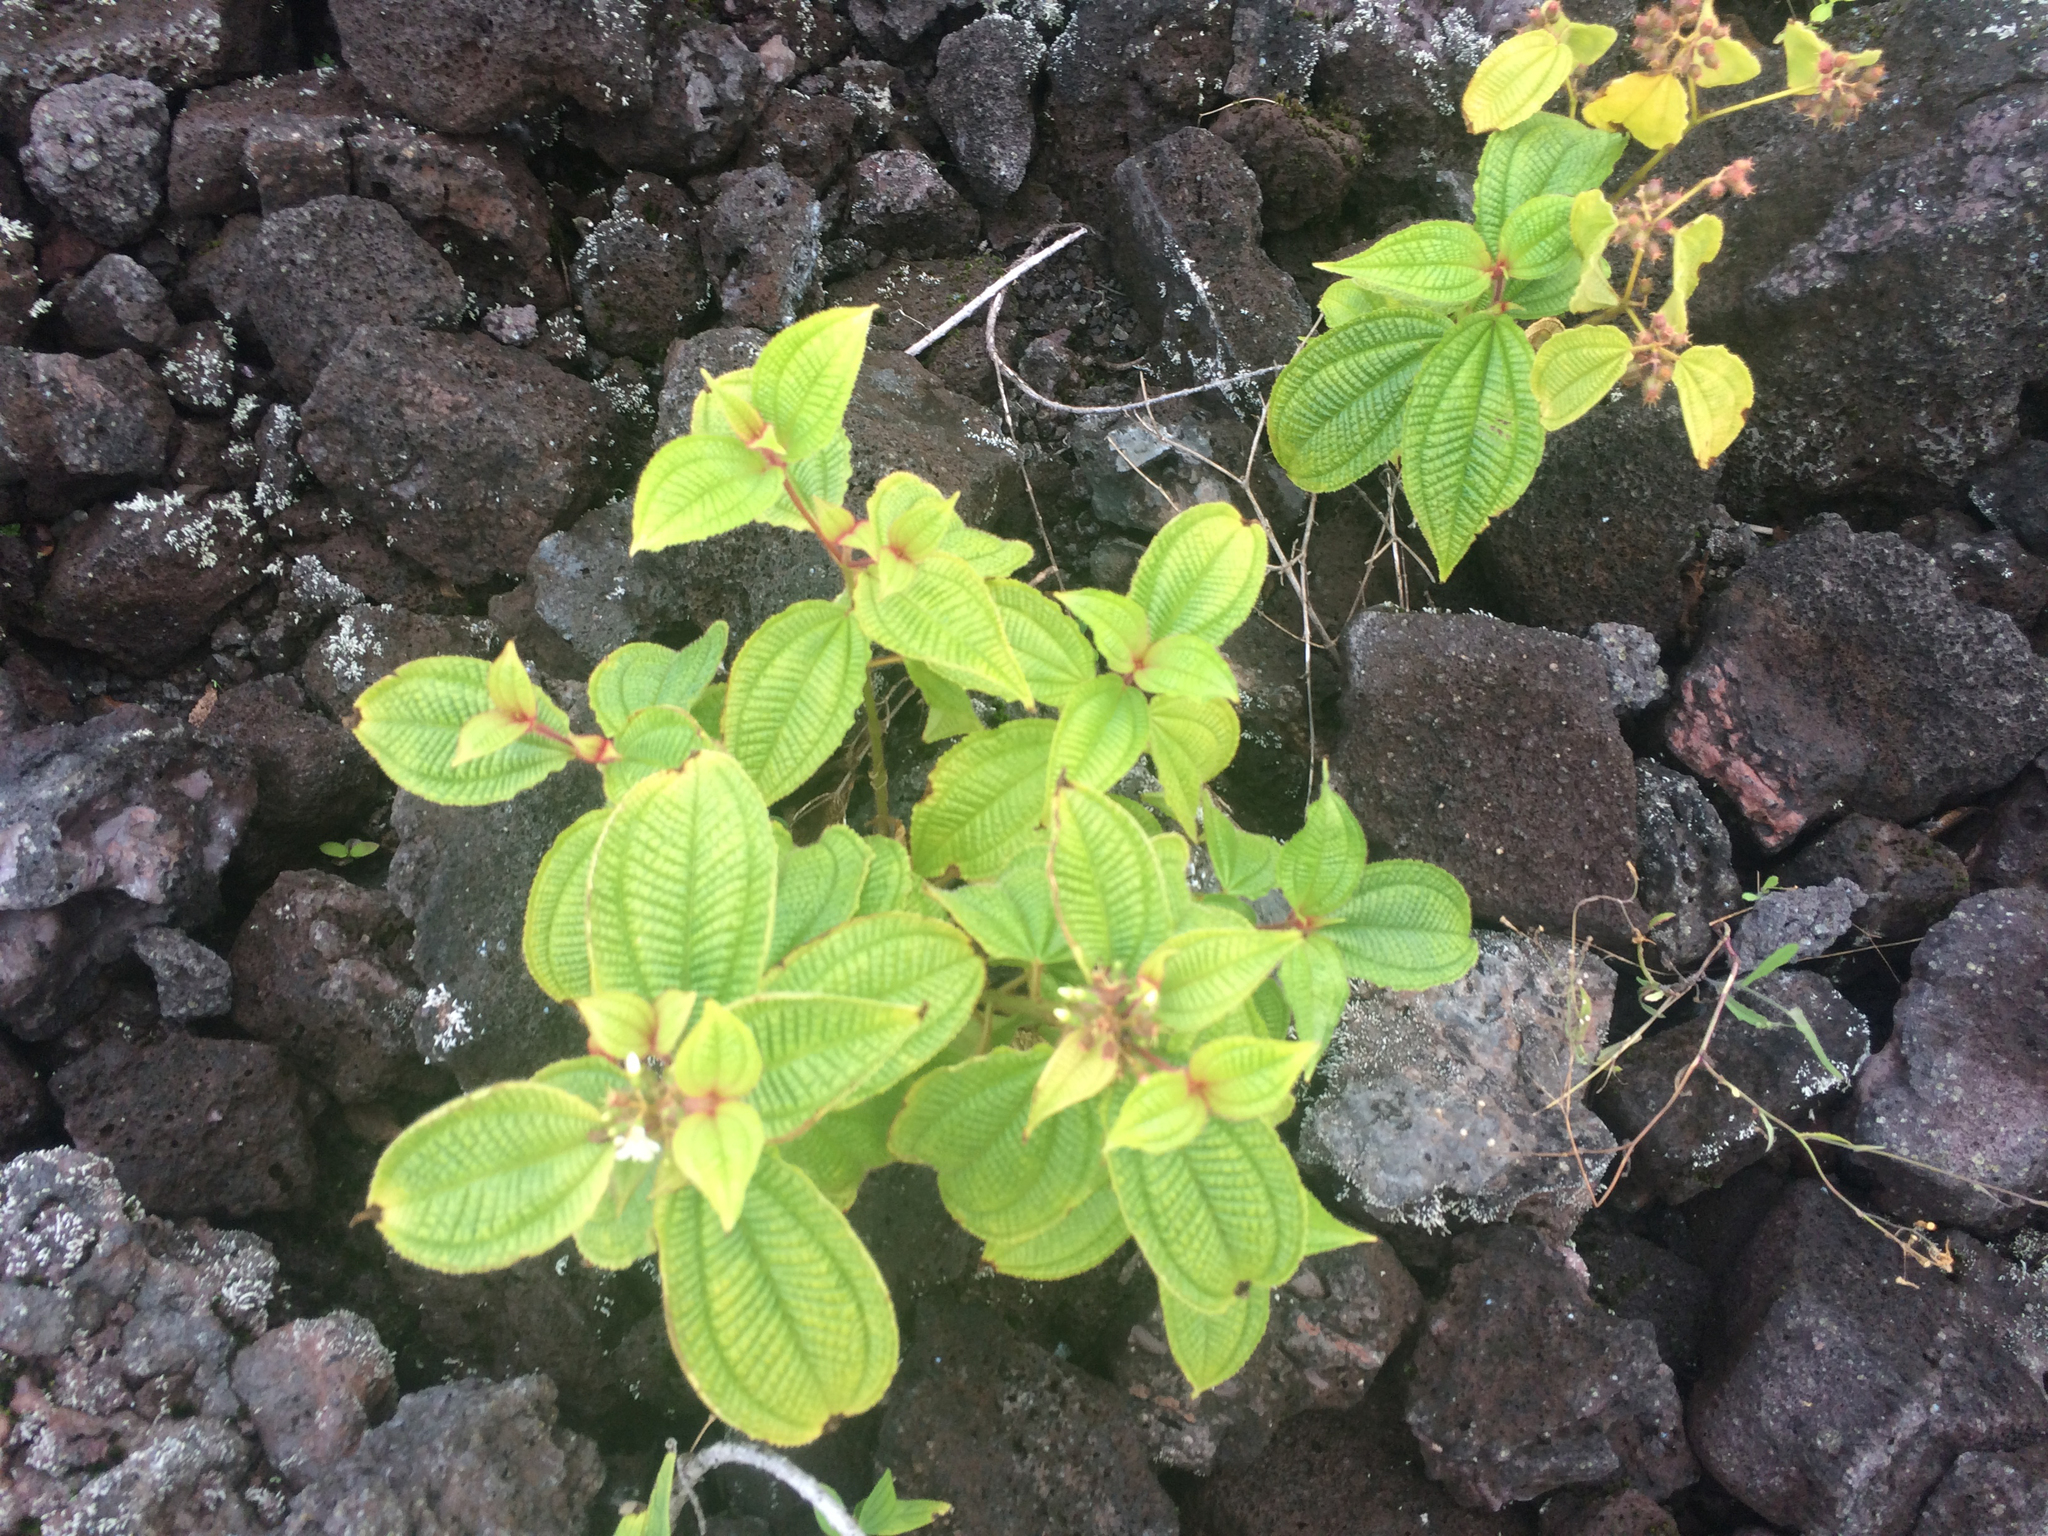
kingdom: Plantae
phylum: Tracheophyta
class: Magnoliopsida
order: Myrtales
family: Melastomataceae
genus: Miconia
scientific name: Miconia crenata
